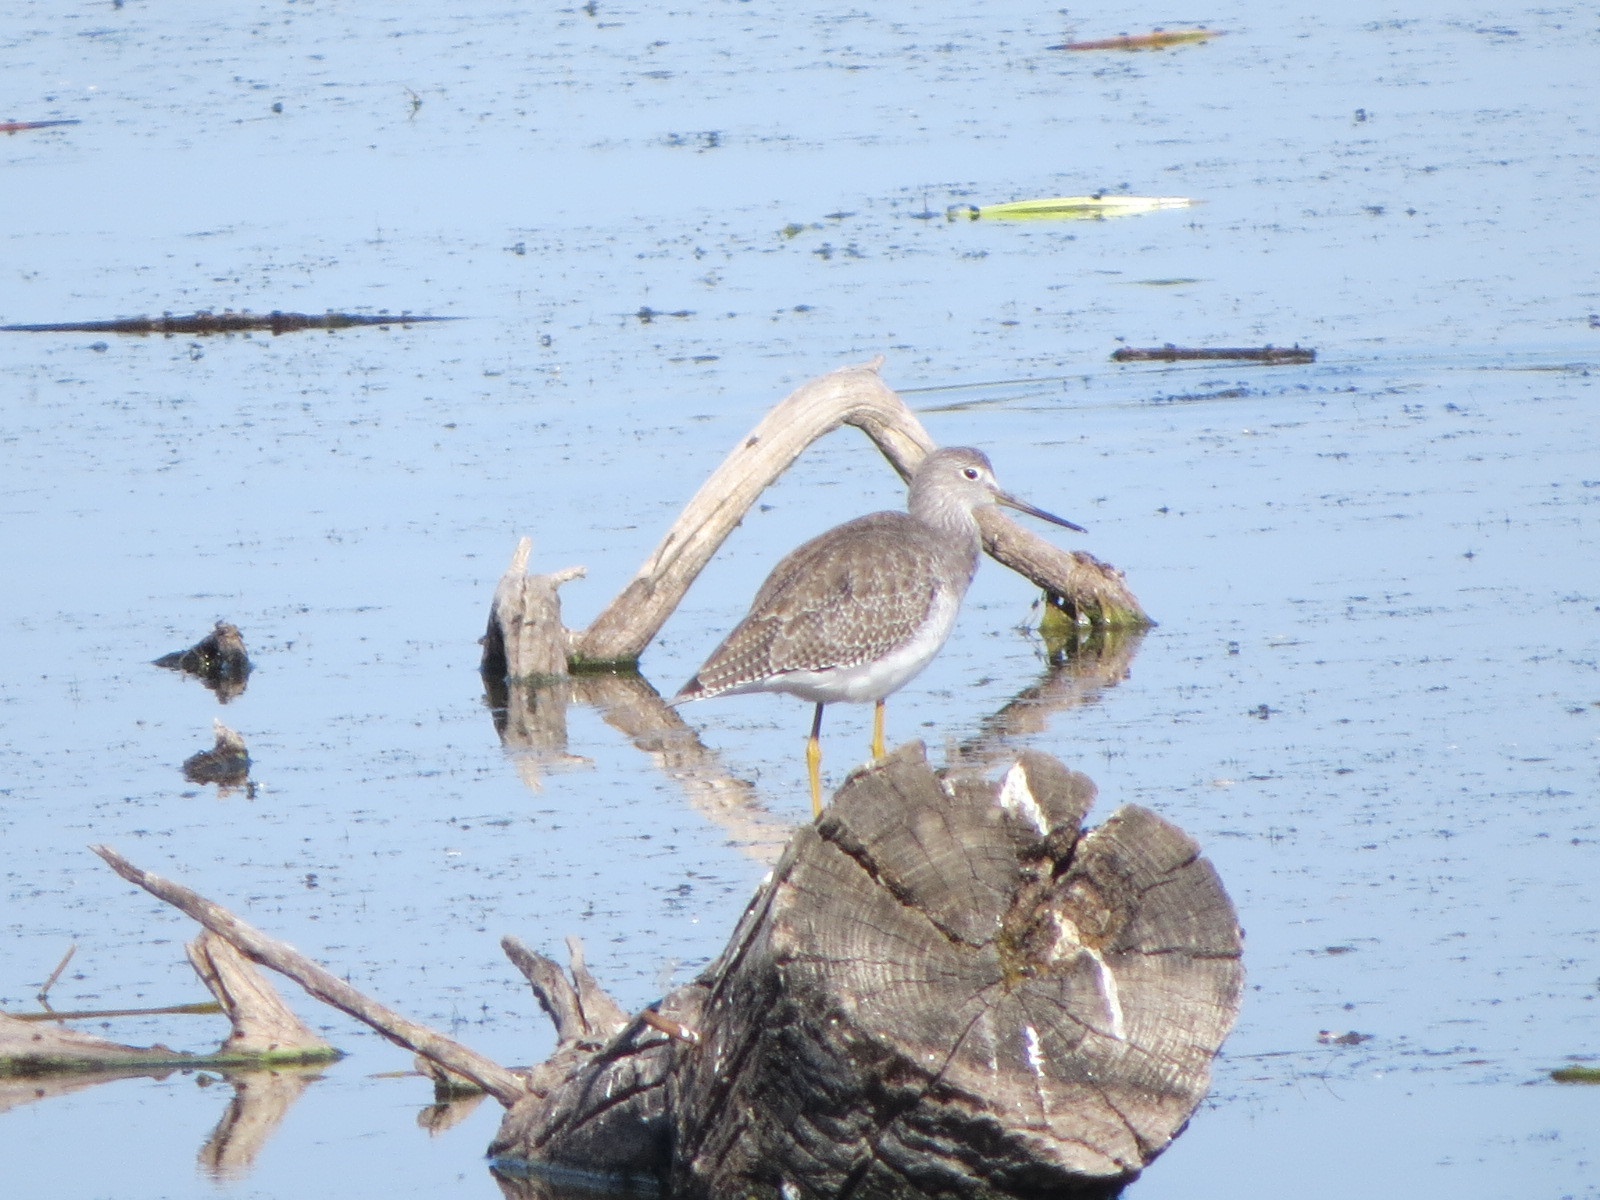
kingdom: Animalia
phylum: Chordata
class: Aves
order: Charadriiformes
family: Scolopacidae
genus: Tringa
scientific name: Tringa melanoleuca
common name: Greater yellowlegs
